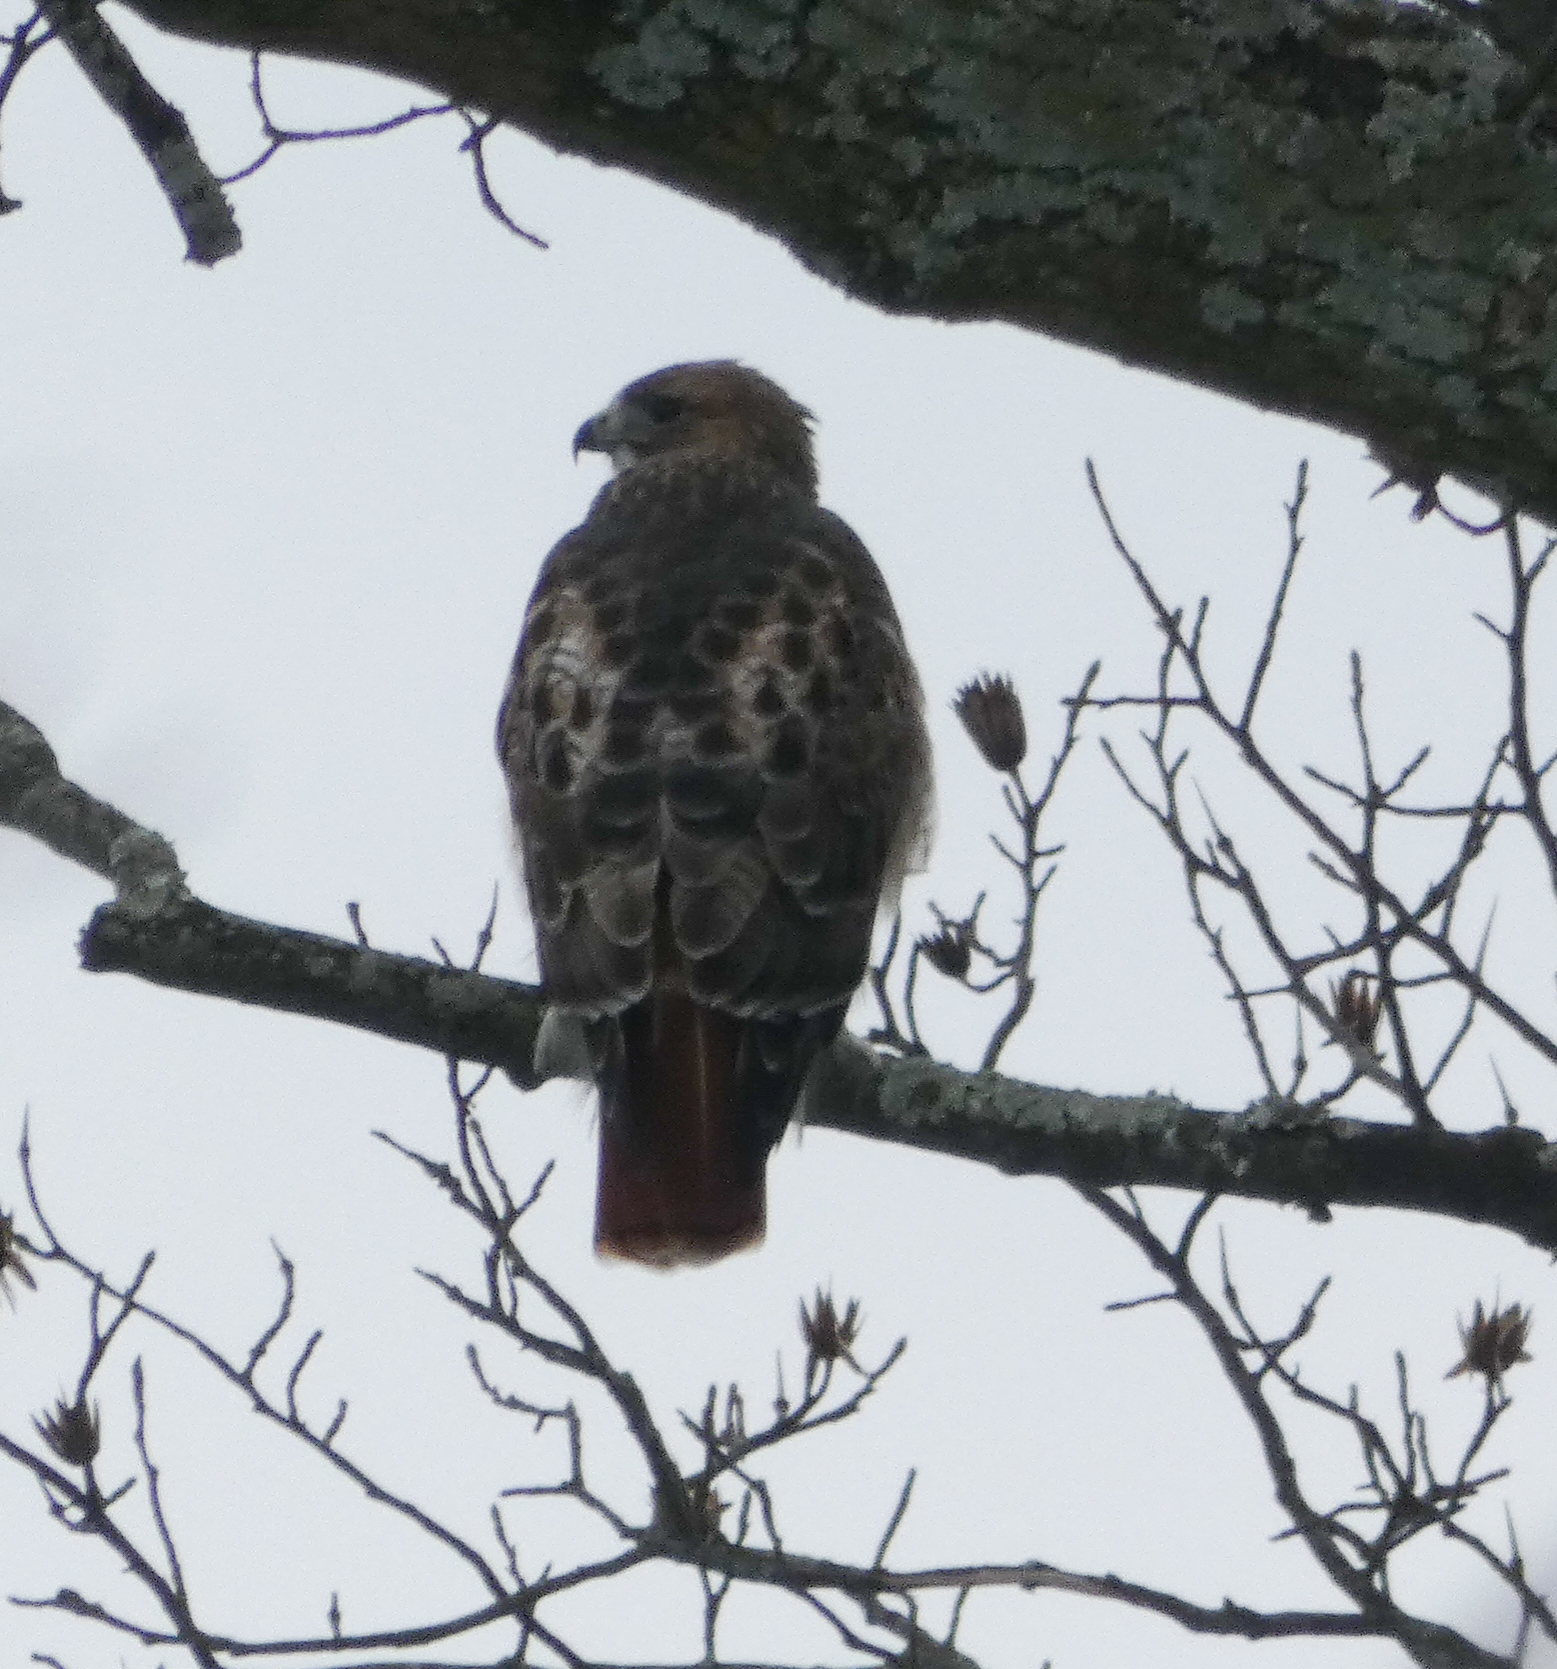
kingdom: Animalia
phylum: Chordata
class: Aves
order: Accipitriformes
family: Accipitridae
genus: Buteo
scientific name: Buteo jamaicensis
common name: Red-tailed hawk
